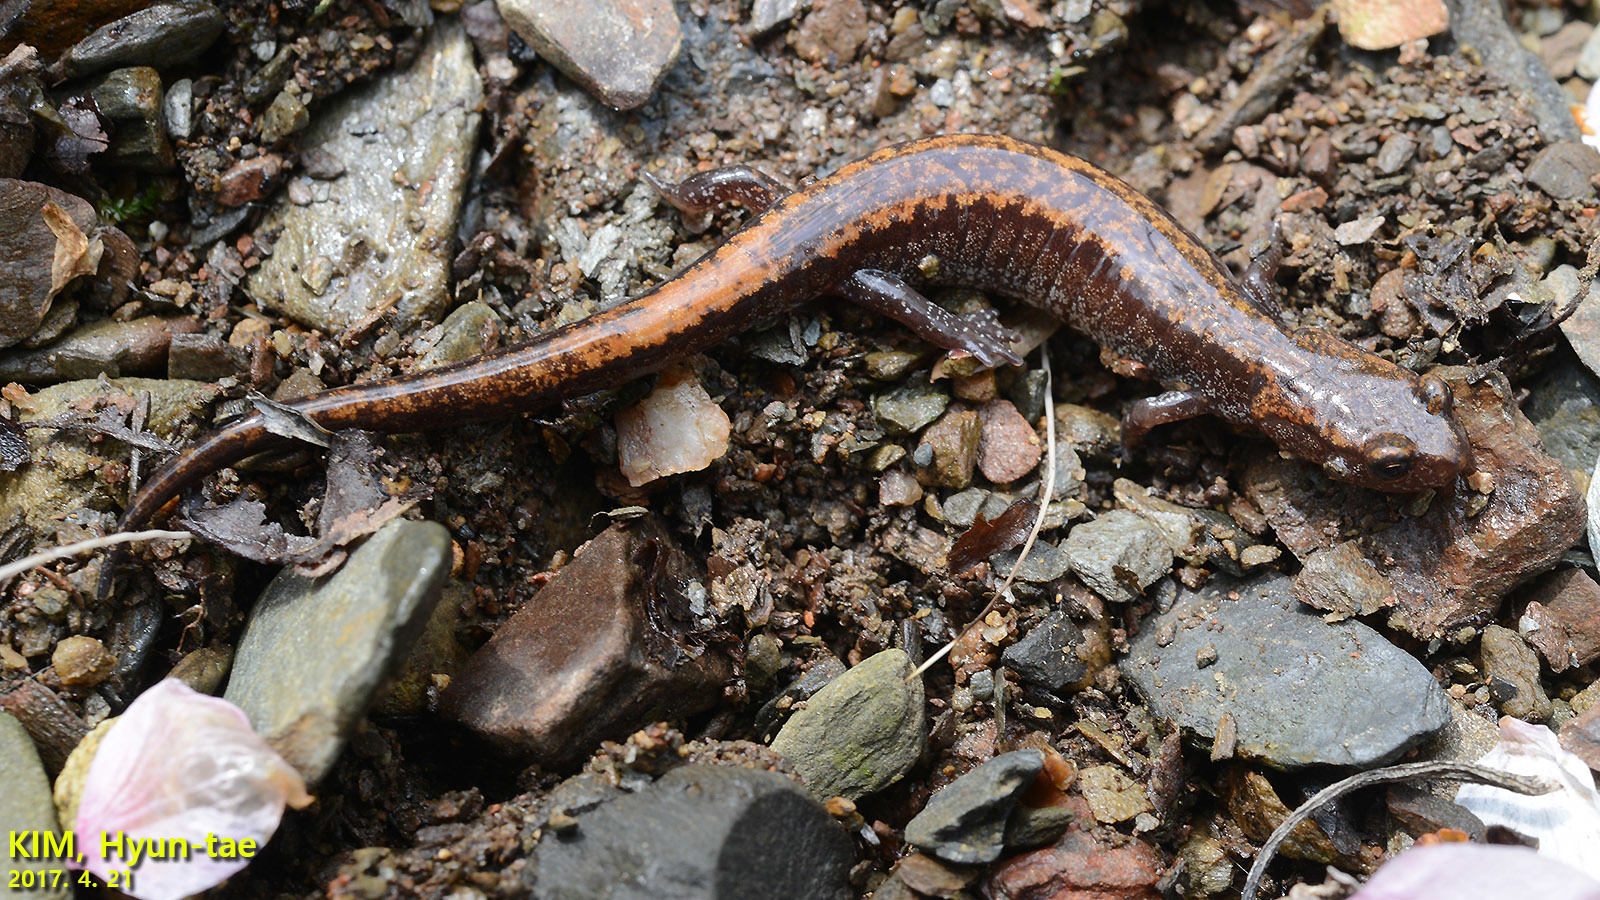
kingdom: Animalia
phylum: Chordata
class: Amphibia
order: Caudata
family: Plethodontidae
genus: Karsenia
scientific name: Karsenia koreana
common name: Korean crevice salamander
